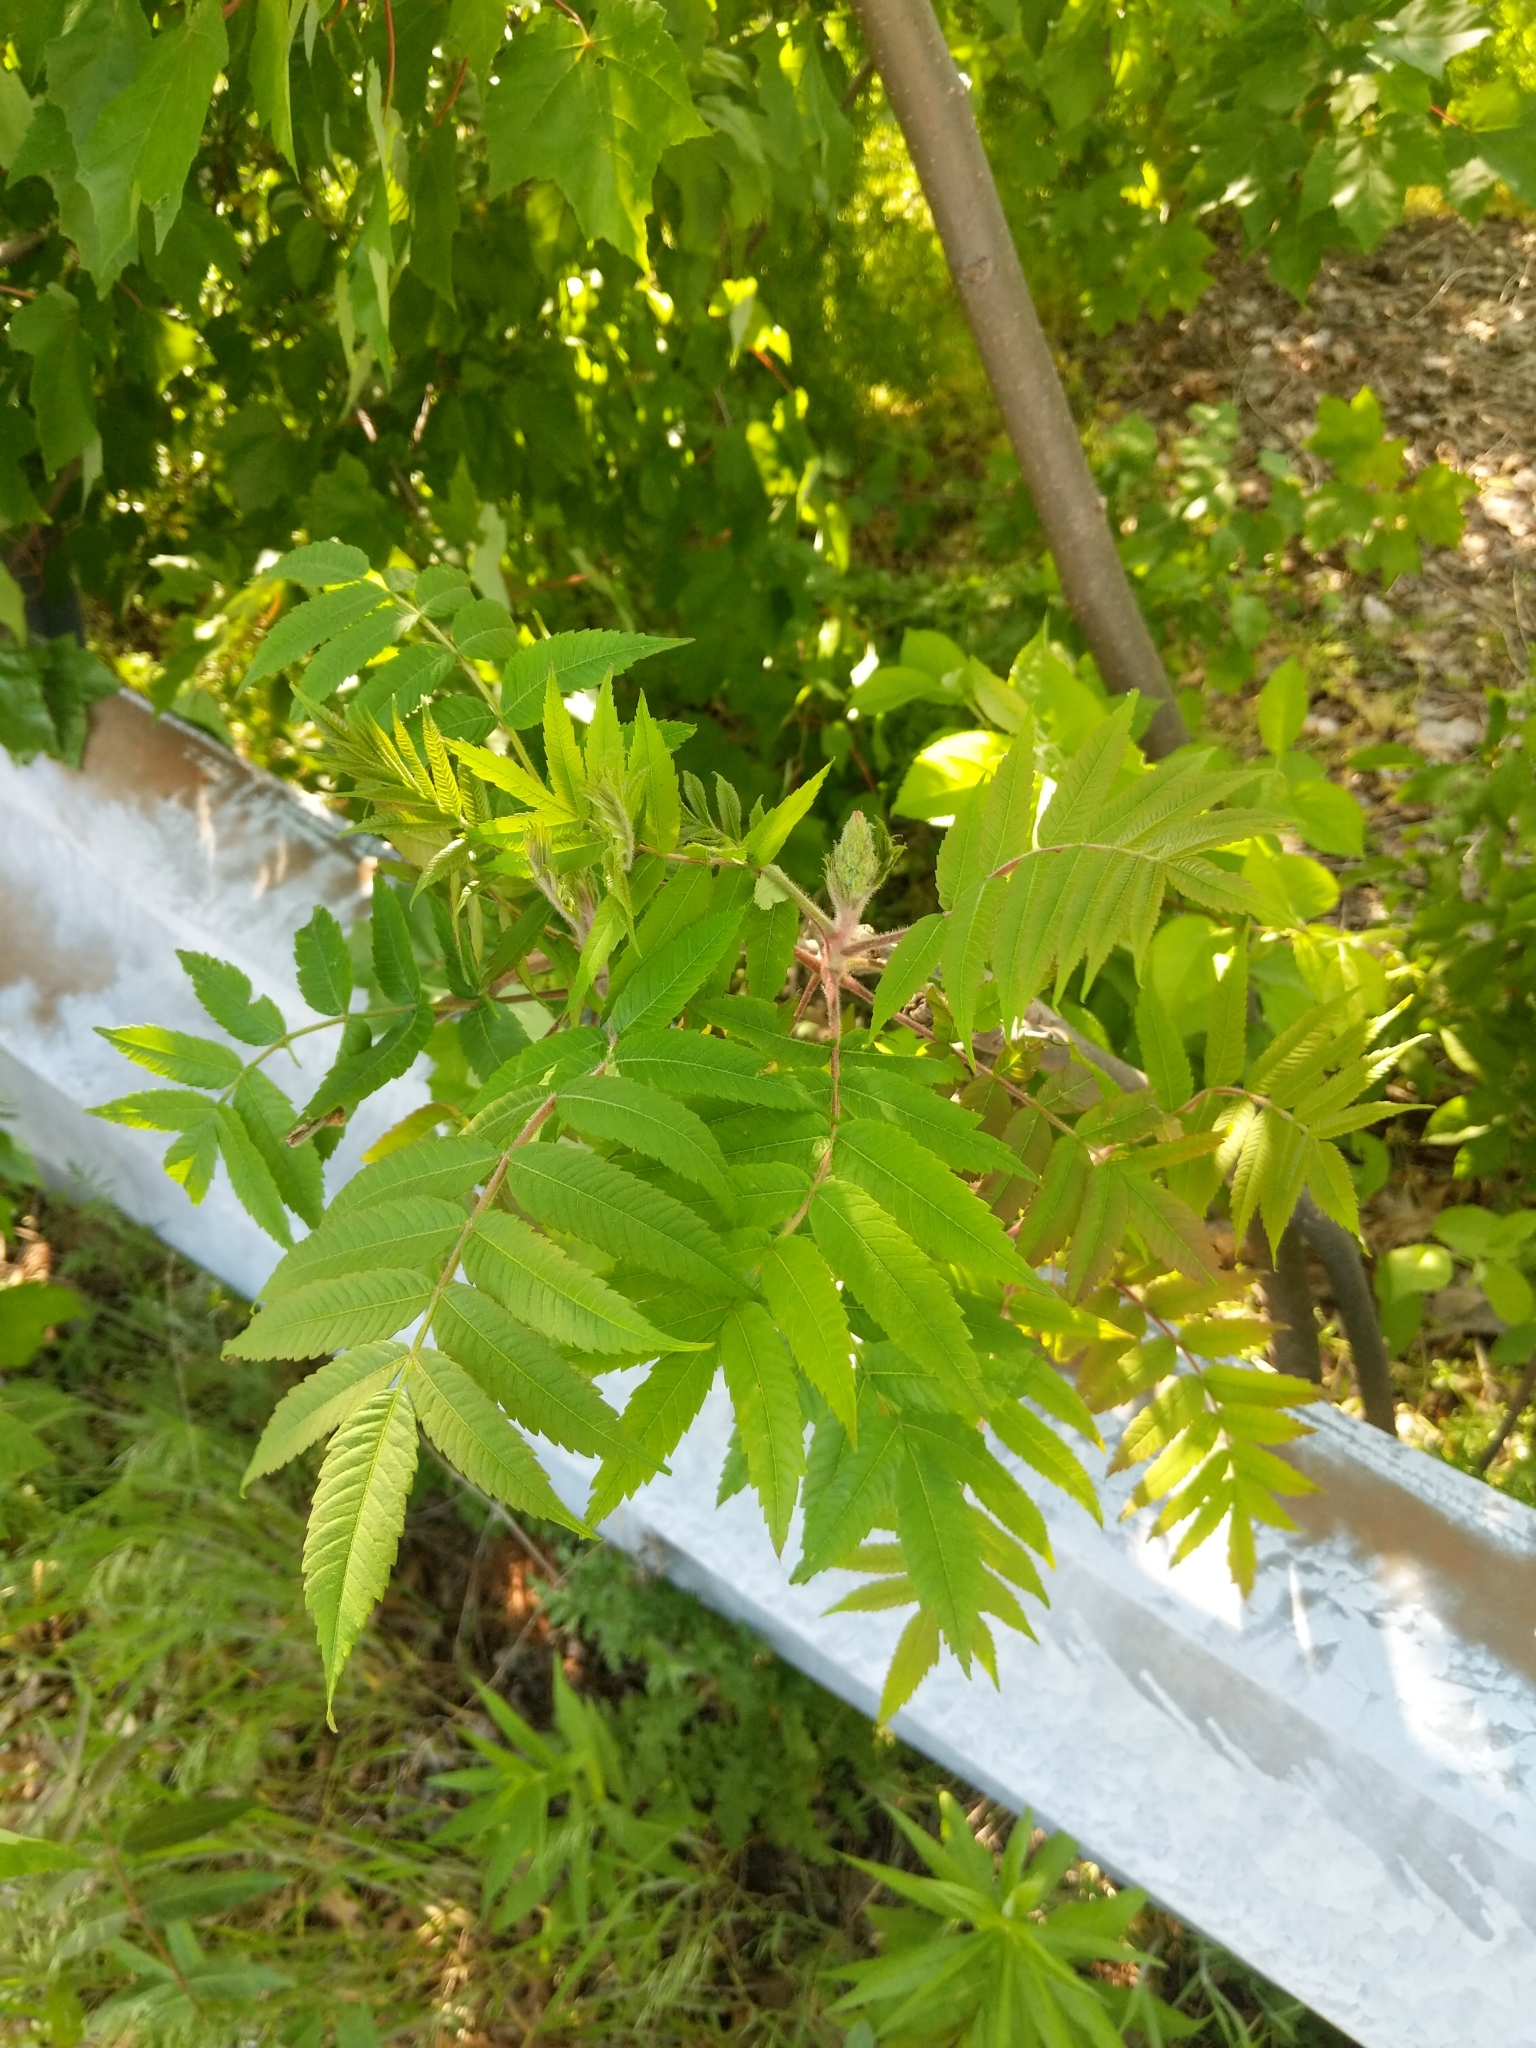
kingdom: Plantae
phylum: Tracheophyta
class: Magnoliopsida
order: Sapindales
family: Anacardiaceae
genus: Rhus
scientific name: Rhus typhina
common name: Staghorn sumac
